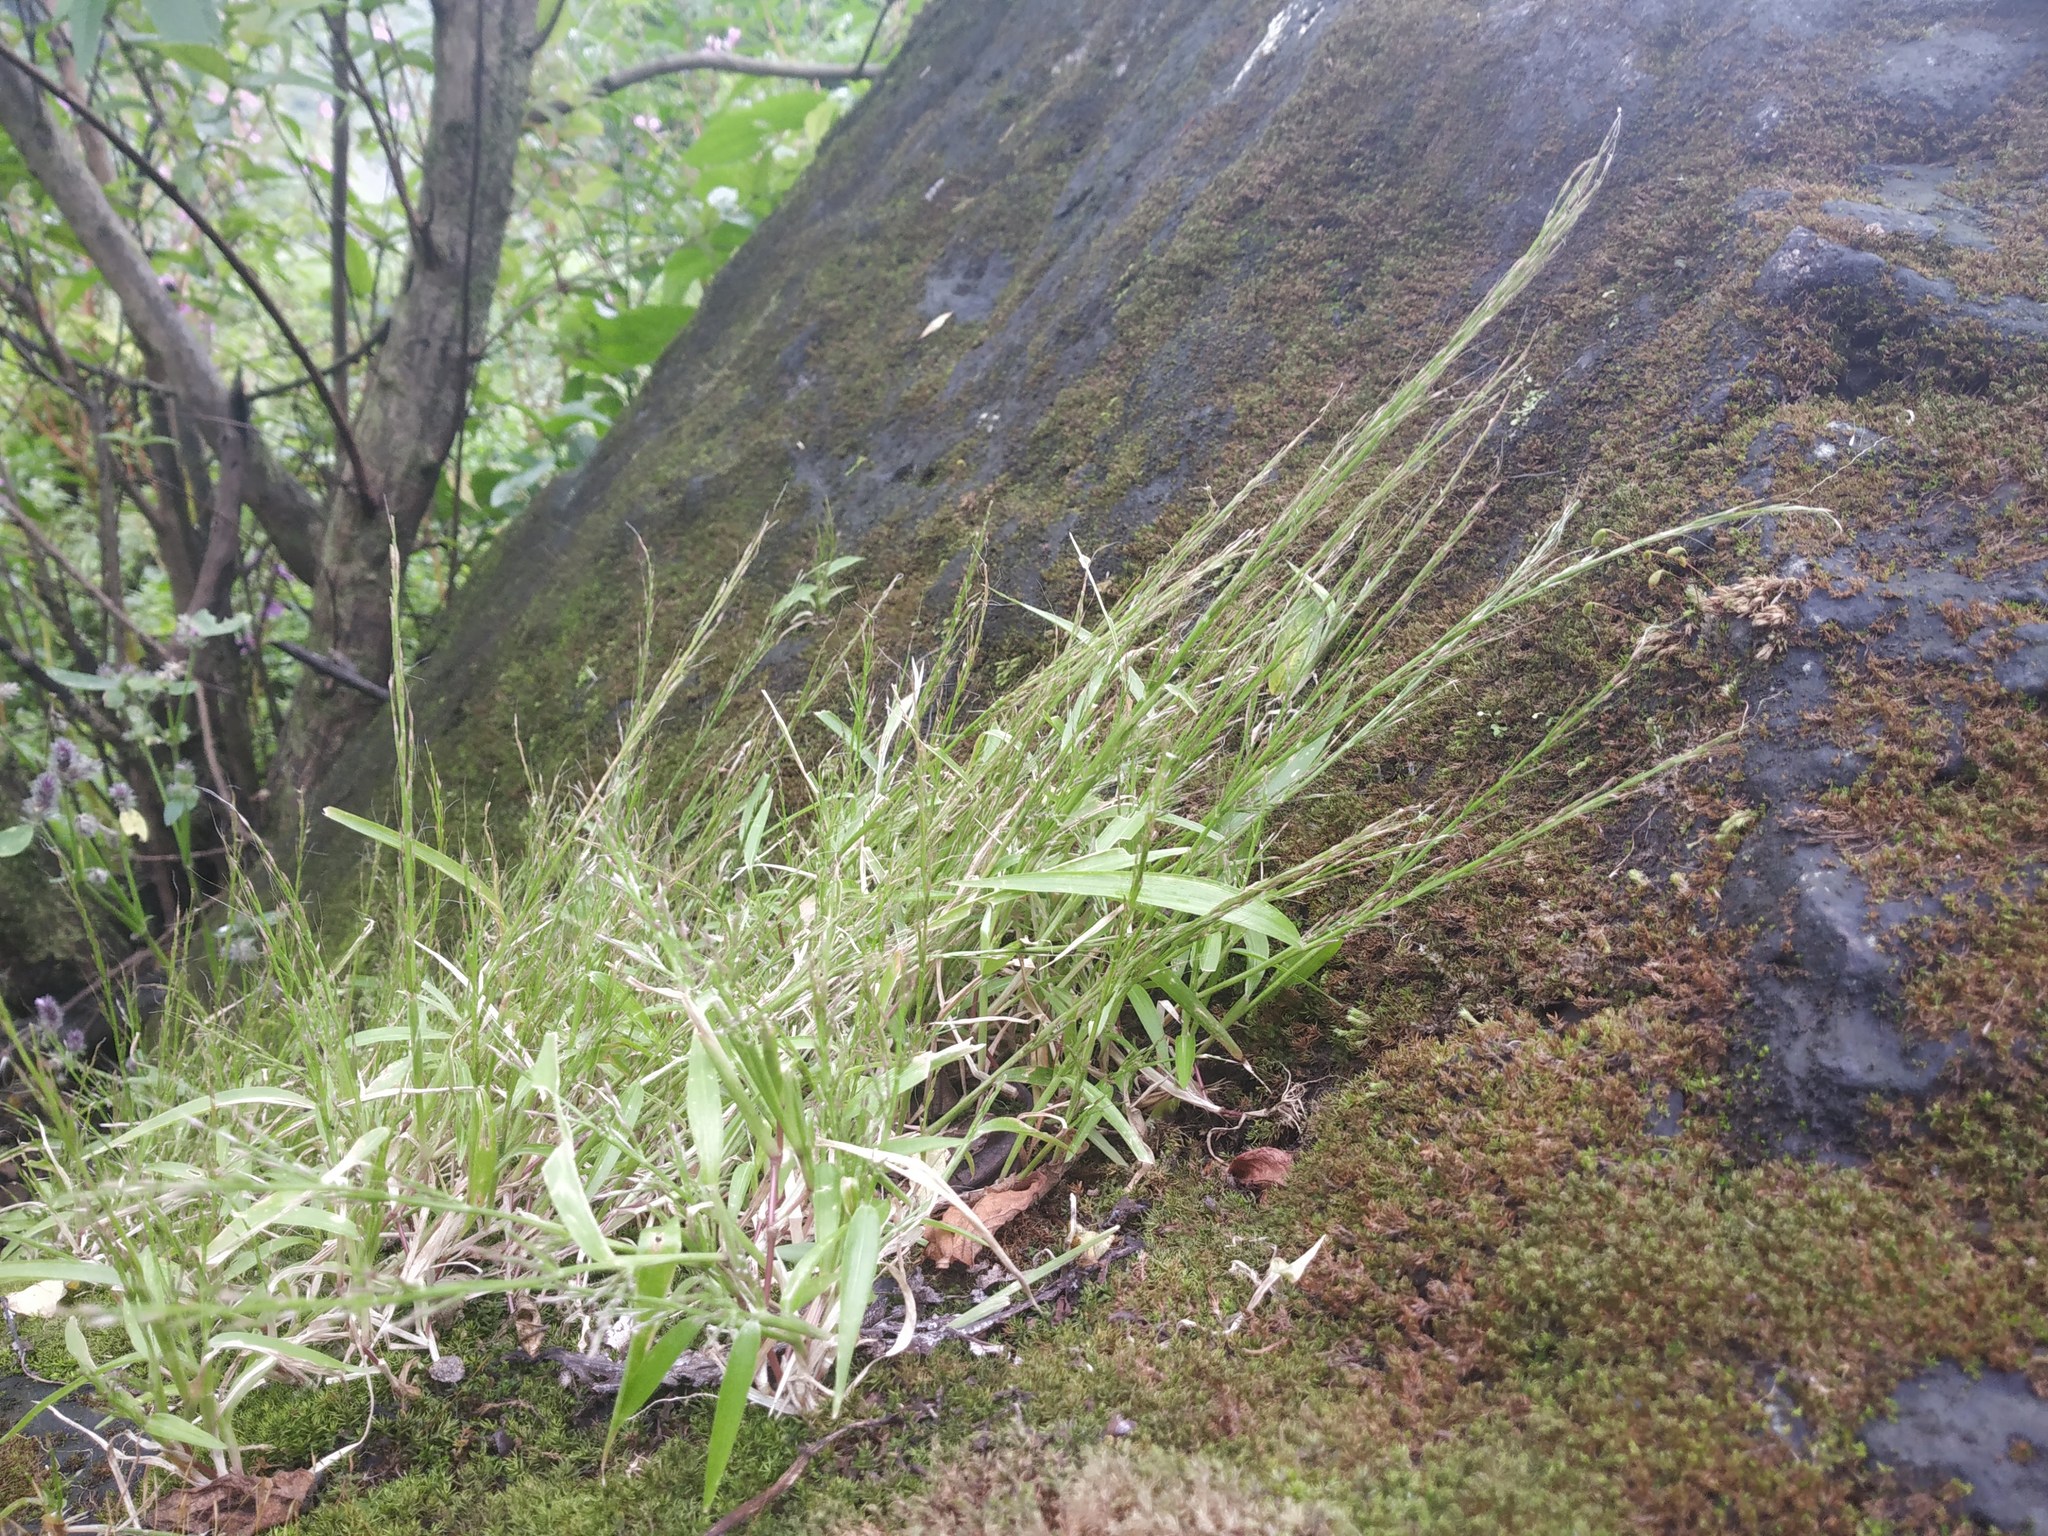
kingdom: Plantae
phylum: Tracheophyta
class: Liliopsida
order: Poales
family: Poaceae
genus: Garnotia
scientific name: Garnotia arborum
